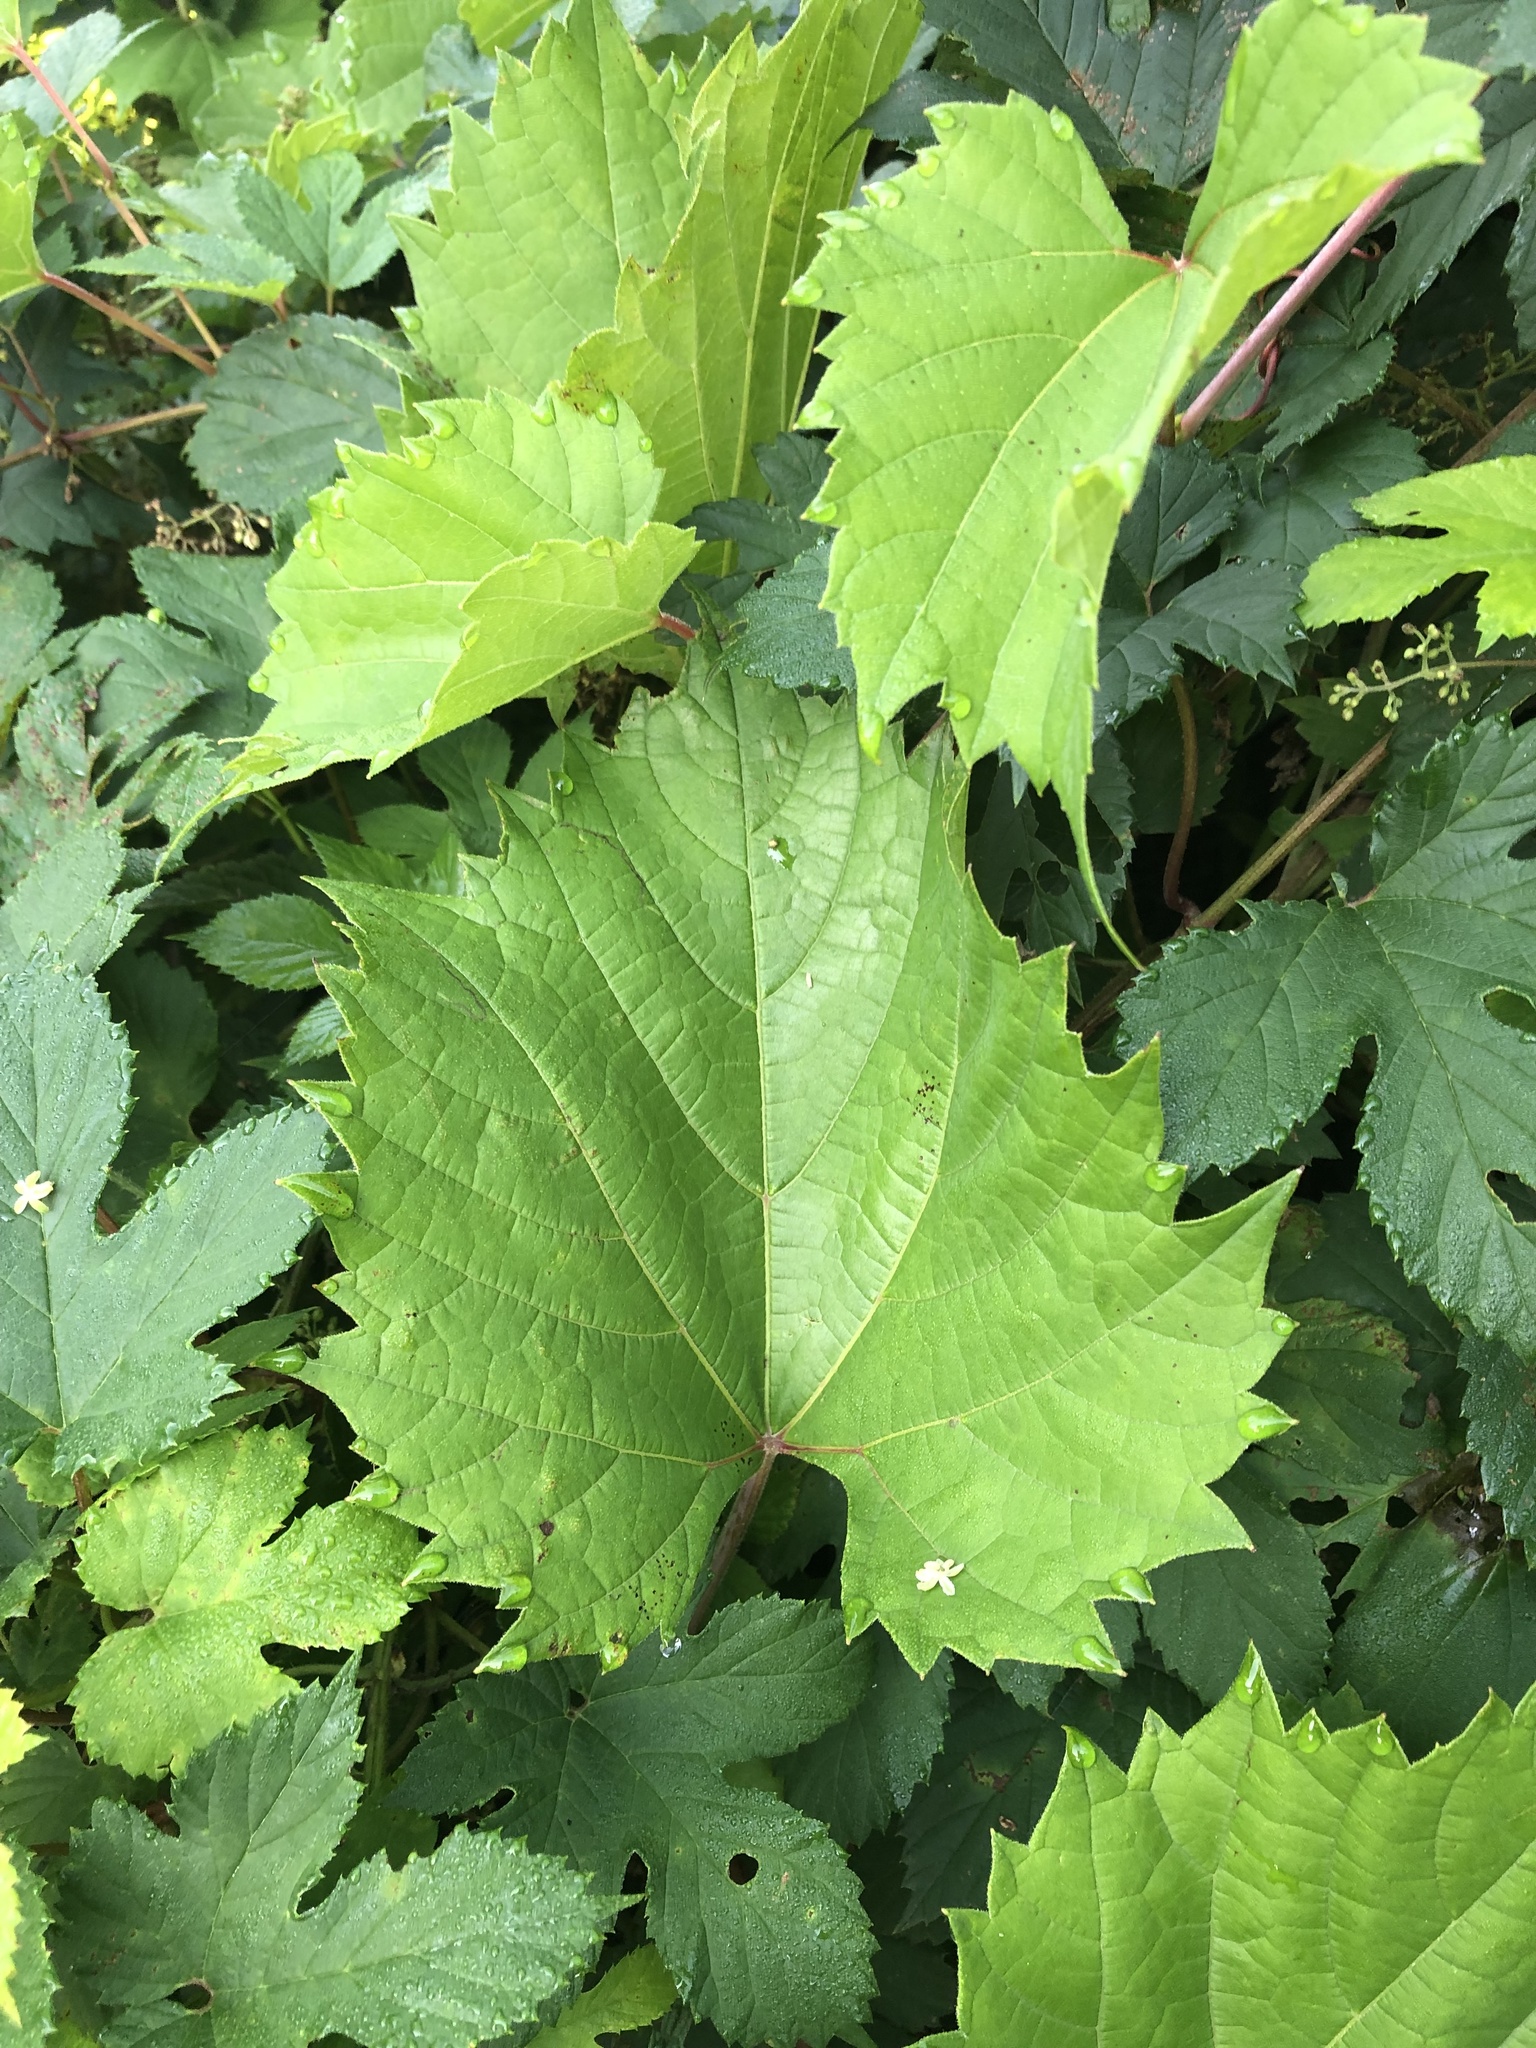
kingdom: Plantae
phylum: Tracheophyta
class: Magnoliopsida
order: Vitales
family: Vitaceae
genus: Vitis
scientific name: Vitis riparia
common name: Frost grape
